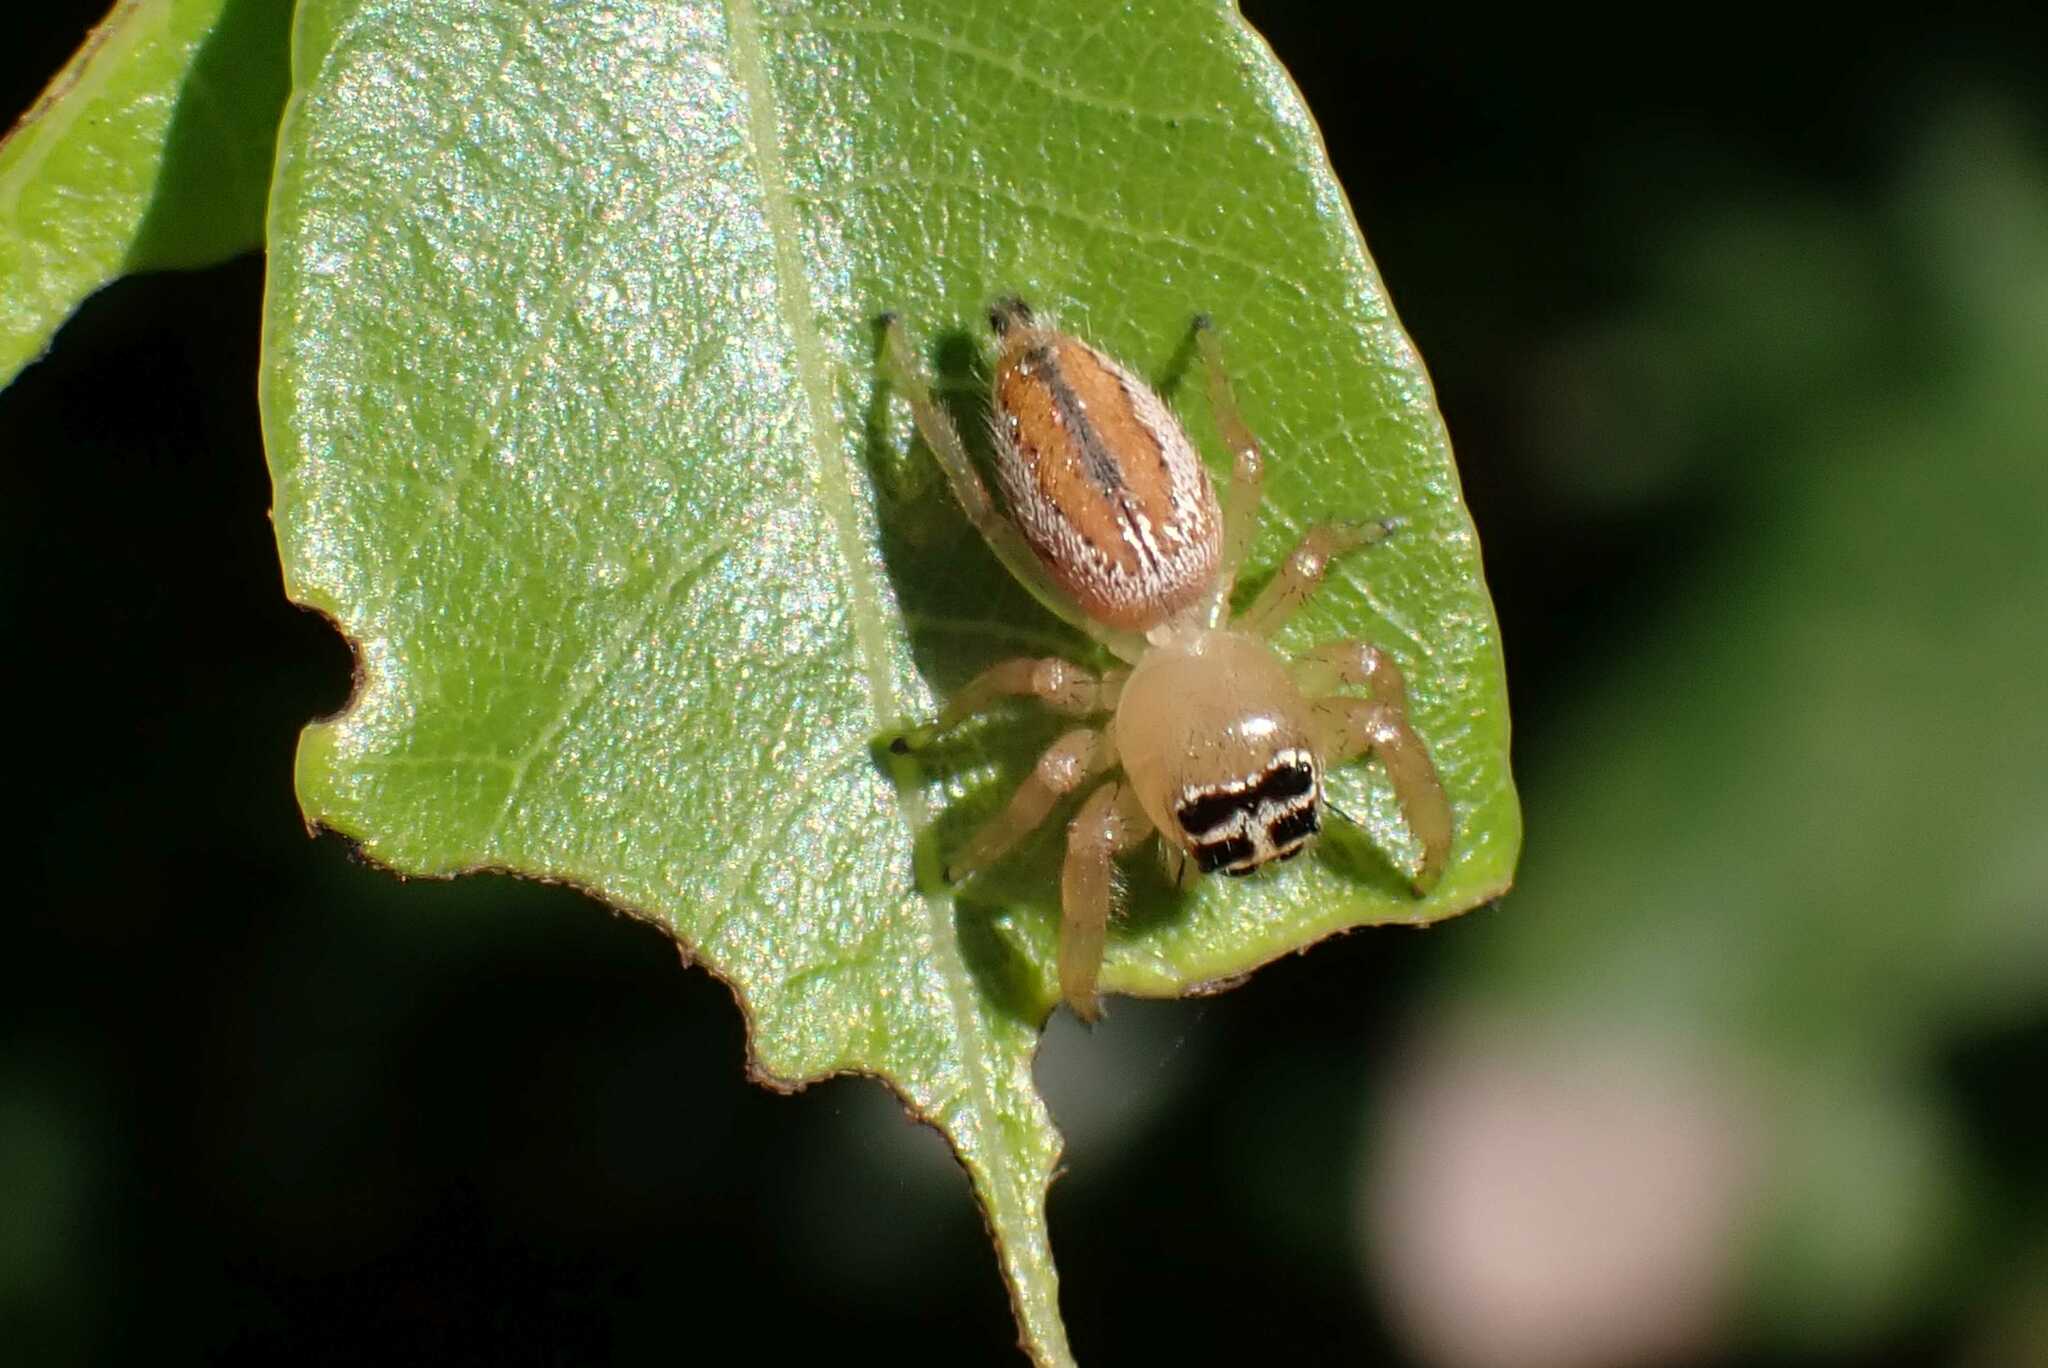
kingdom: Animalia
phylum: Arthropoda
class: Arachnida
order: Araneae
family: Salticidae
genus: Thyene
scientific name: Thyene inflata
